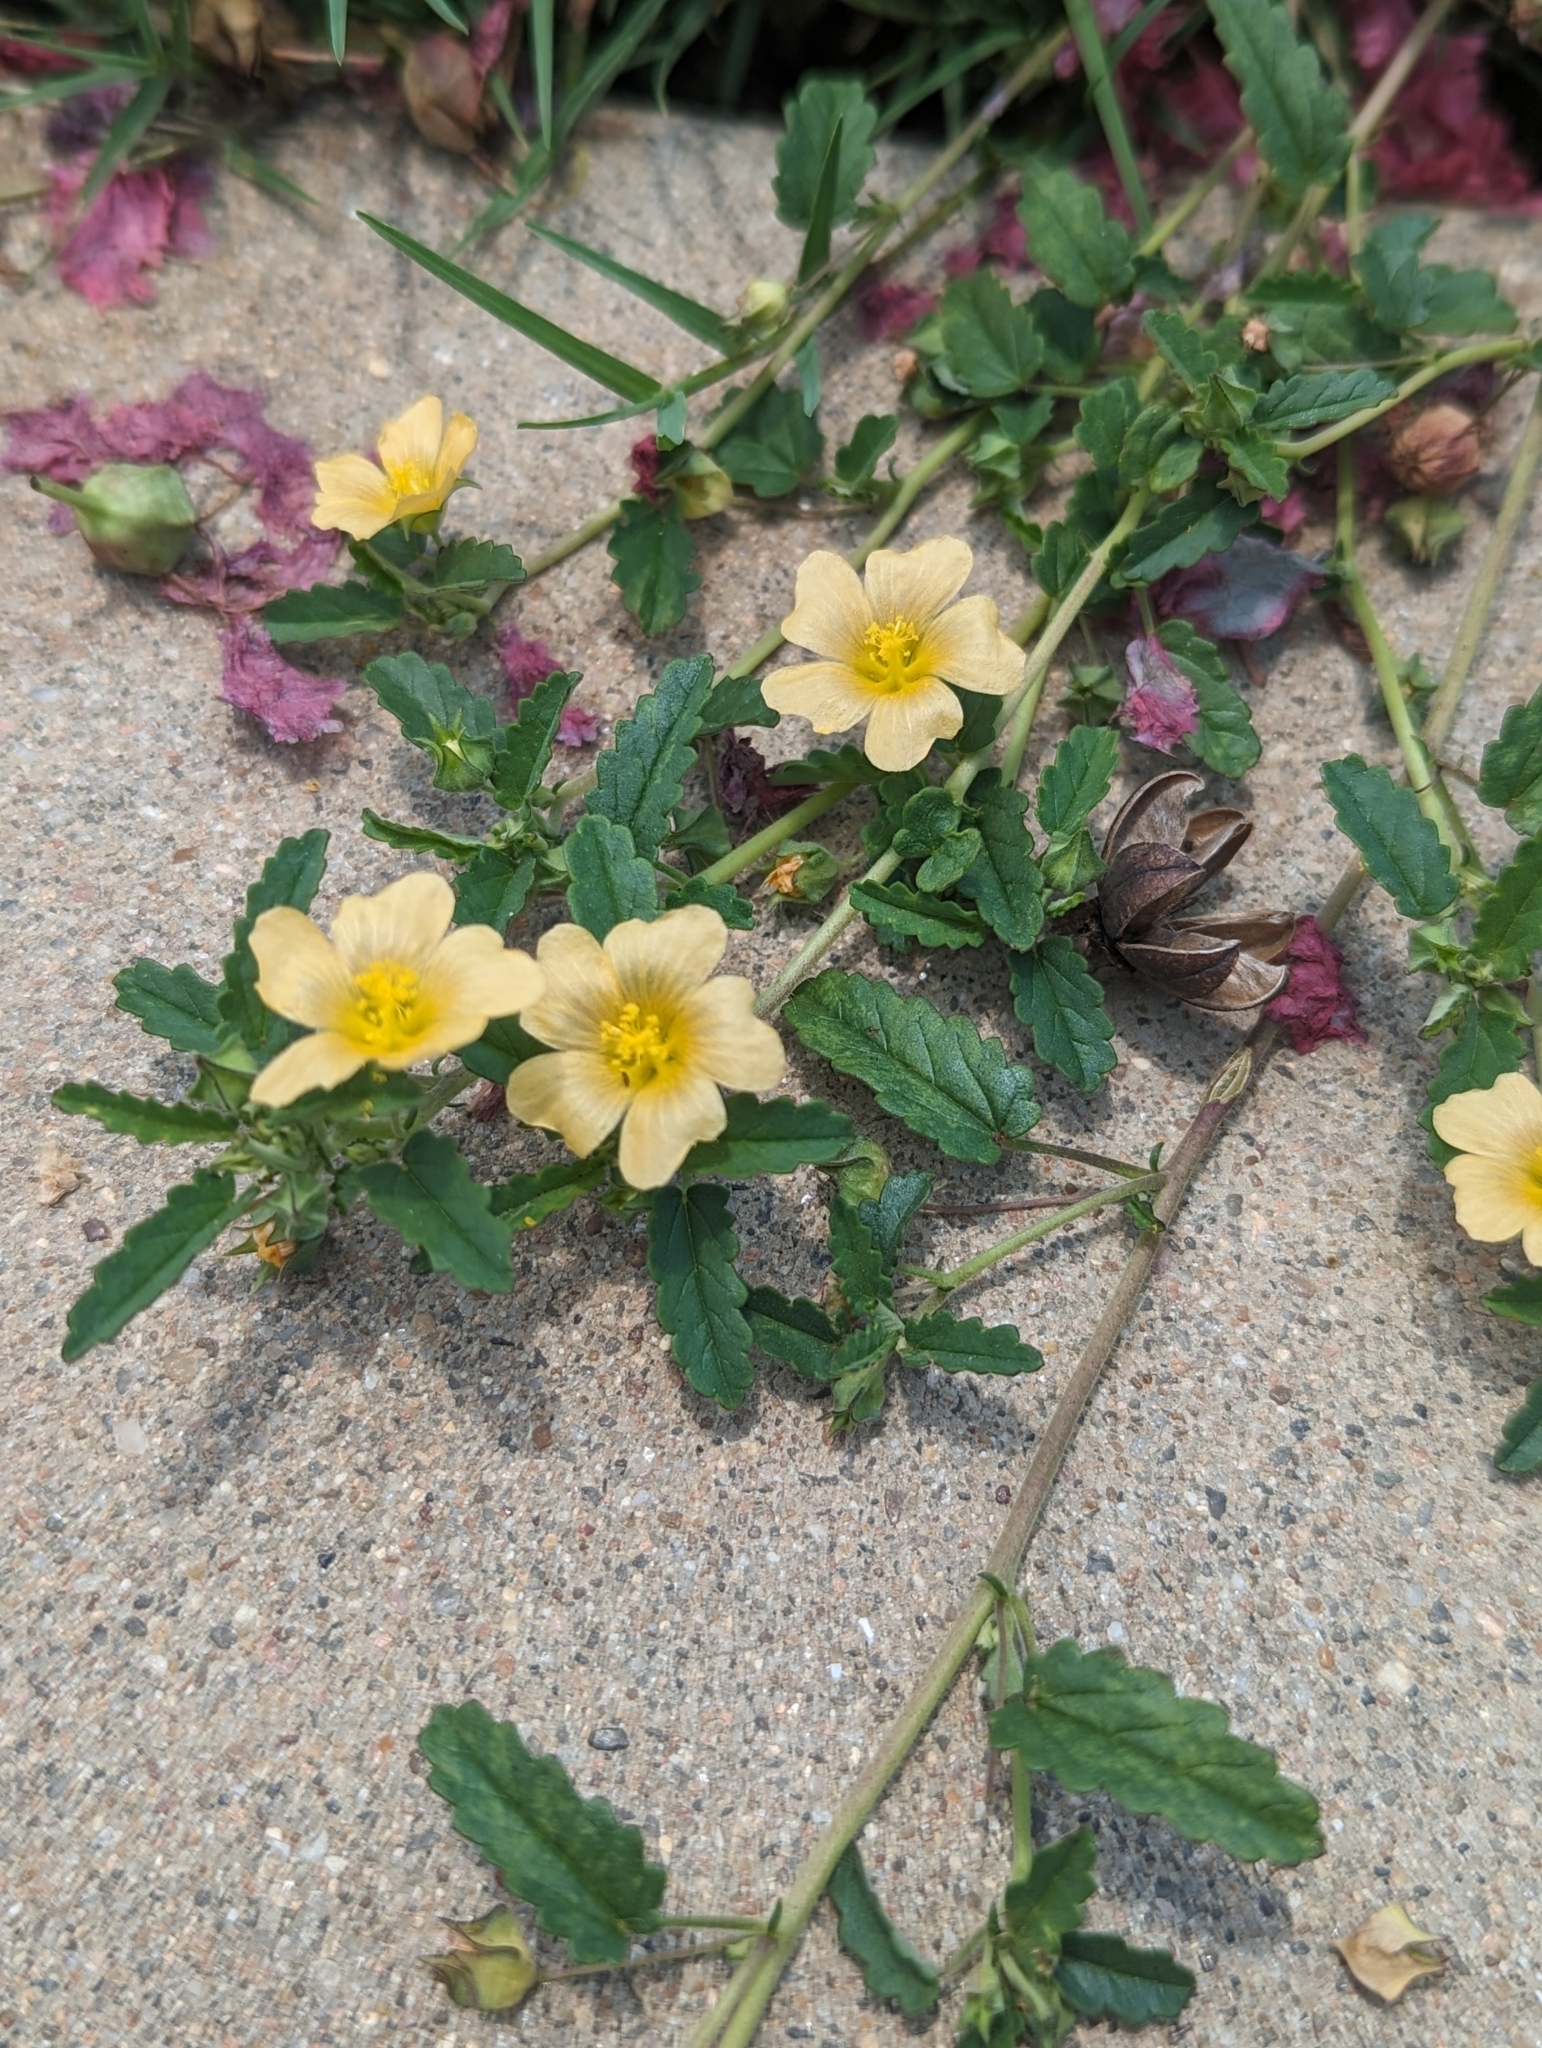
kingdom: Plantae
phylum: Tracheophyta
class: Magnoliopsida
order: Malvales
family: Malvaceae
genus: Sida
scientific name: Sida abutilifolia
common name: Spreading fanpetals
